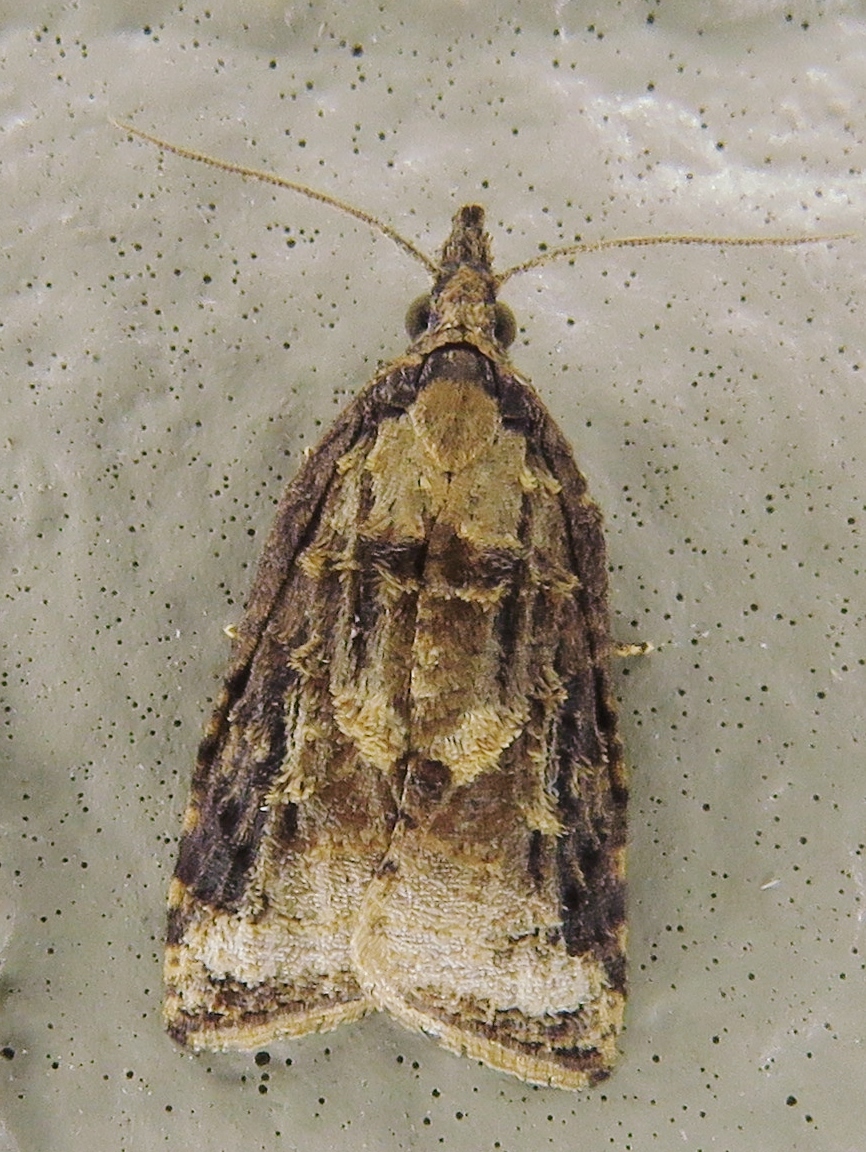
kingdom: Animalia
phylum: Arthropoda
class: Insecta
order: Lepidoptera
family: Tortricidae
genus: Platynota
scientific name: Platynota rostrana
